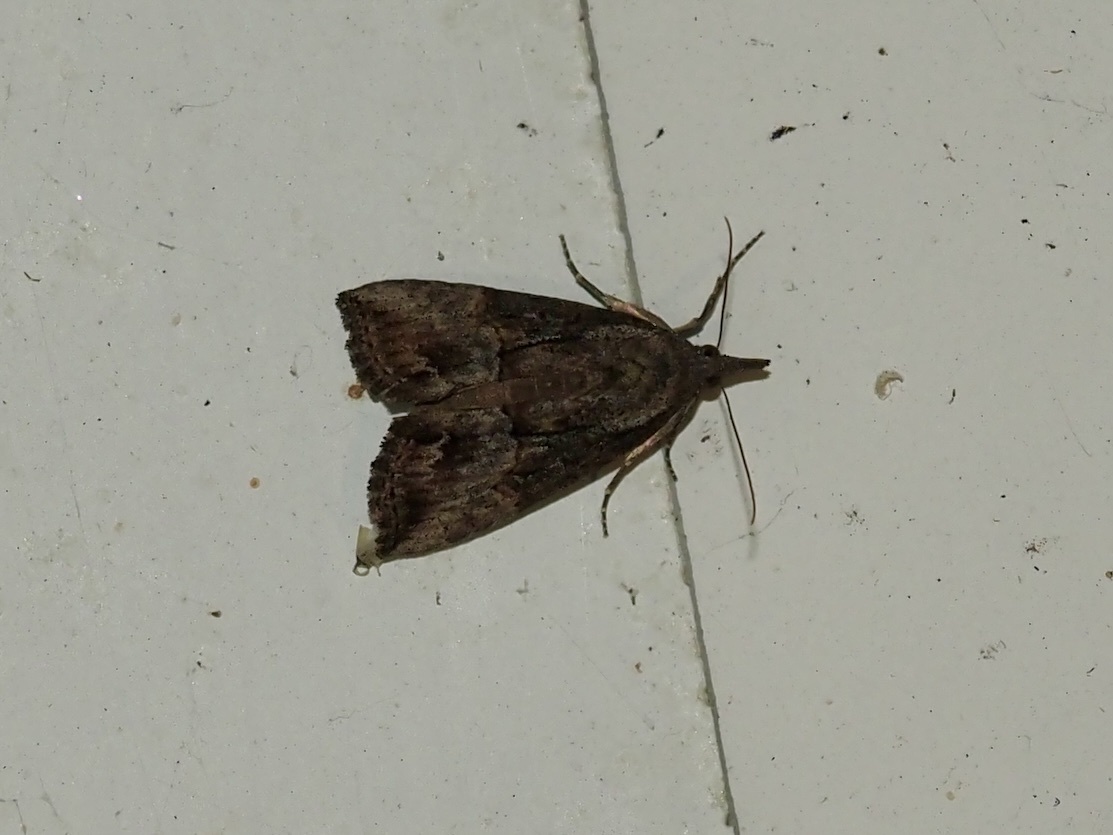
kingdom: Animalia
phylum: Arthropoda
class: Insecta
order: Lepidoptera
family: Erebidae
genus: Hypena
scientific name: Hypena scabra
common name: Green cloverworm
